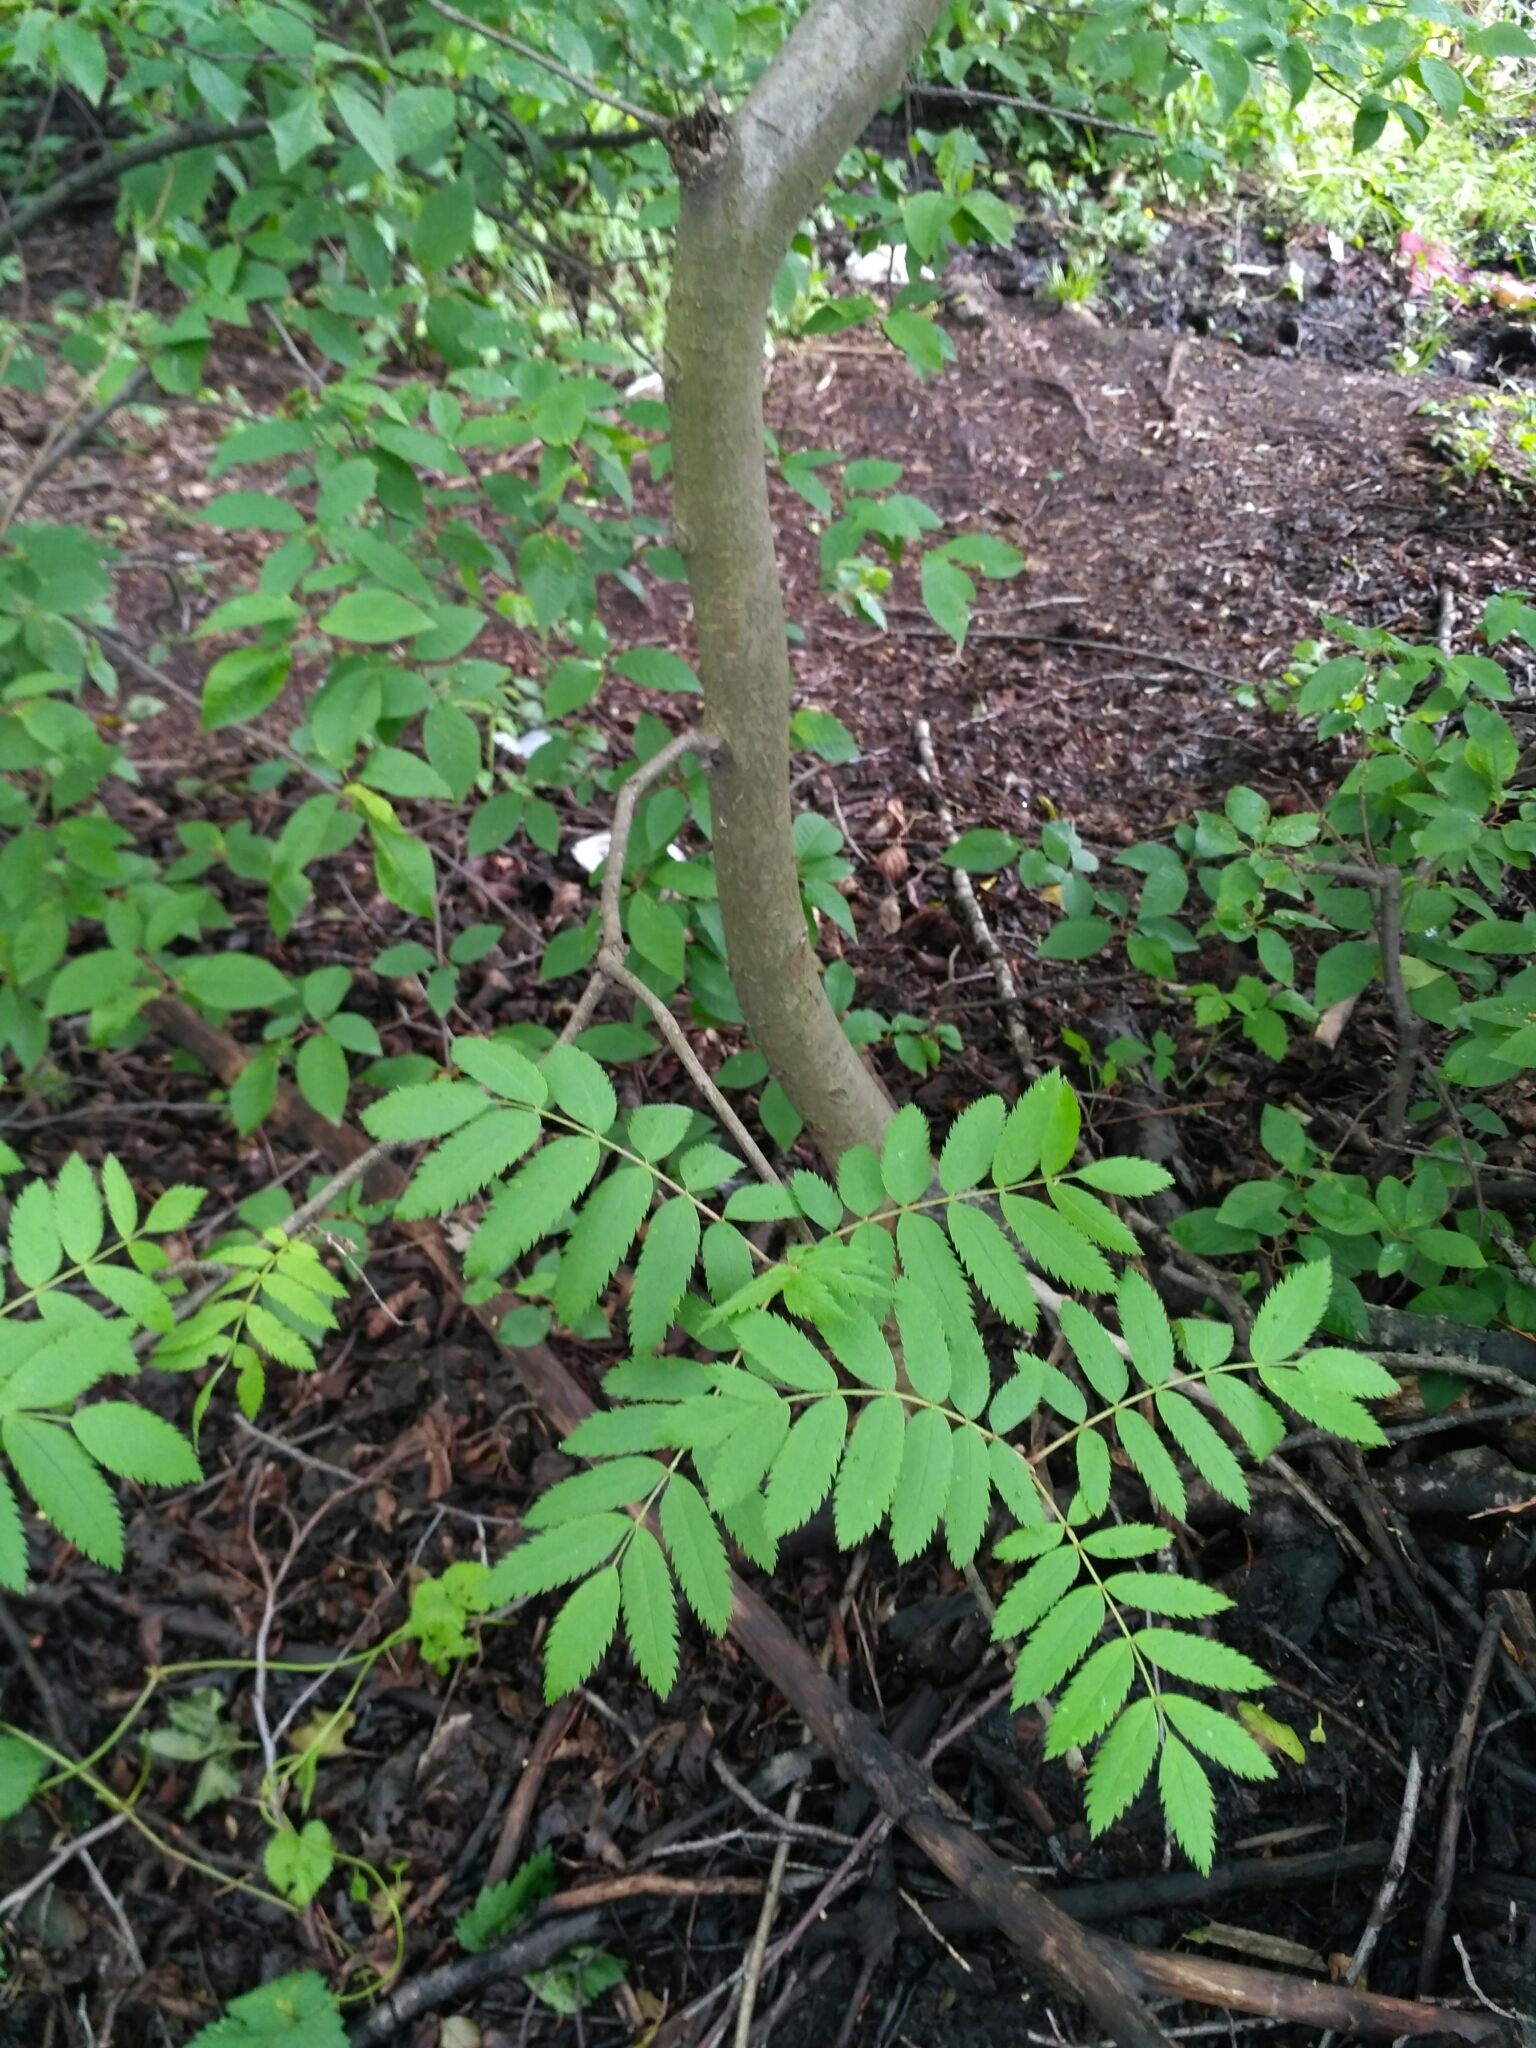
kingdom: Plantae
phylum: Tracheophyta
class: Magnoliopsida
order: Rosales
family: Rosaceae
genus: Sorbus
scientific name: Sorbus aucuparia
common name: Rowan
